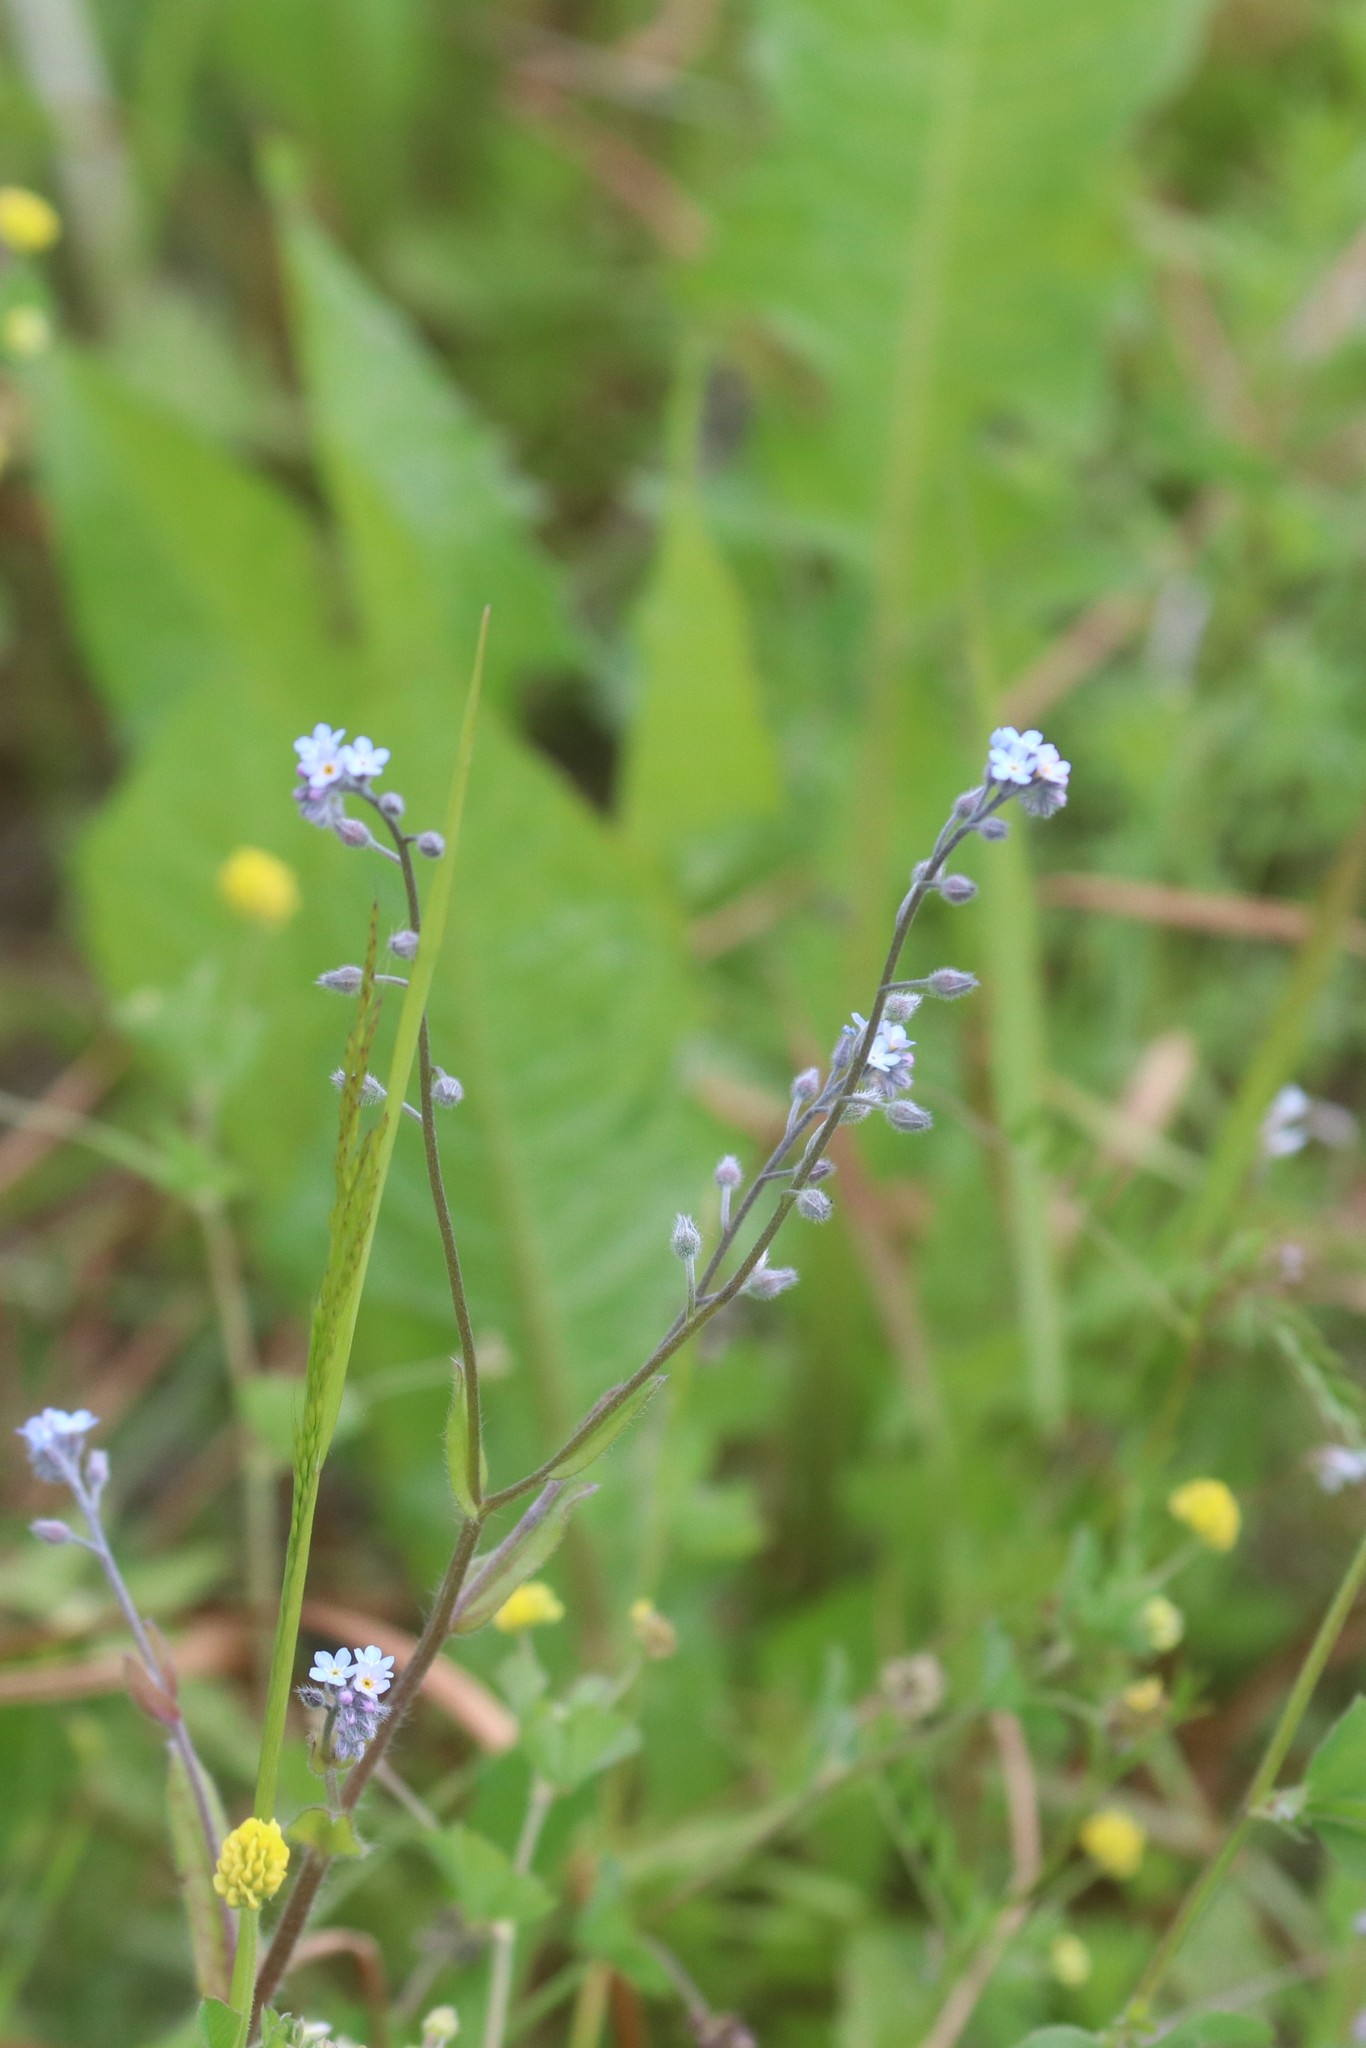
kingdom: Plantae
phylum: Tracheophyta
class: Magnoliopsida
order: Boraginales
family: Boraginaceae
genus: Myosotis
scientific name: Myosotis arvensis
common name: Field forget-me-not
